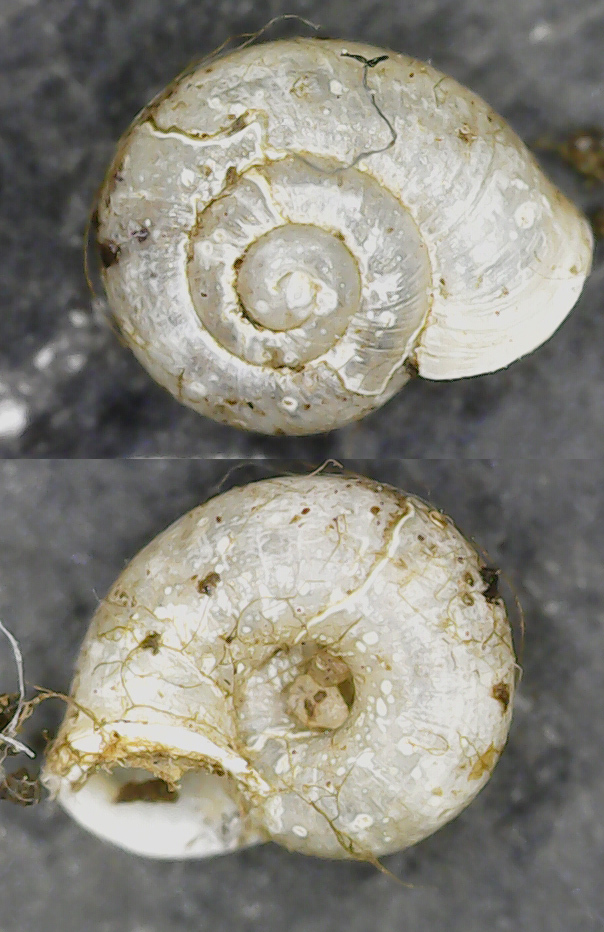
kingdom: Animalia
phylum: Mollusca
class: Gastropoda
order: Stylommatophora
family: Valloniidae
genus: Vallonia
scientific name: Vallonia excentrica
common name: Eccentric grass snail
